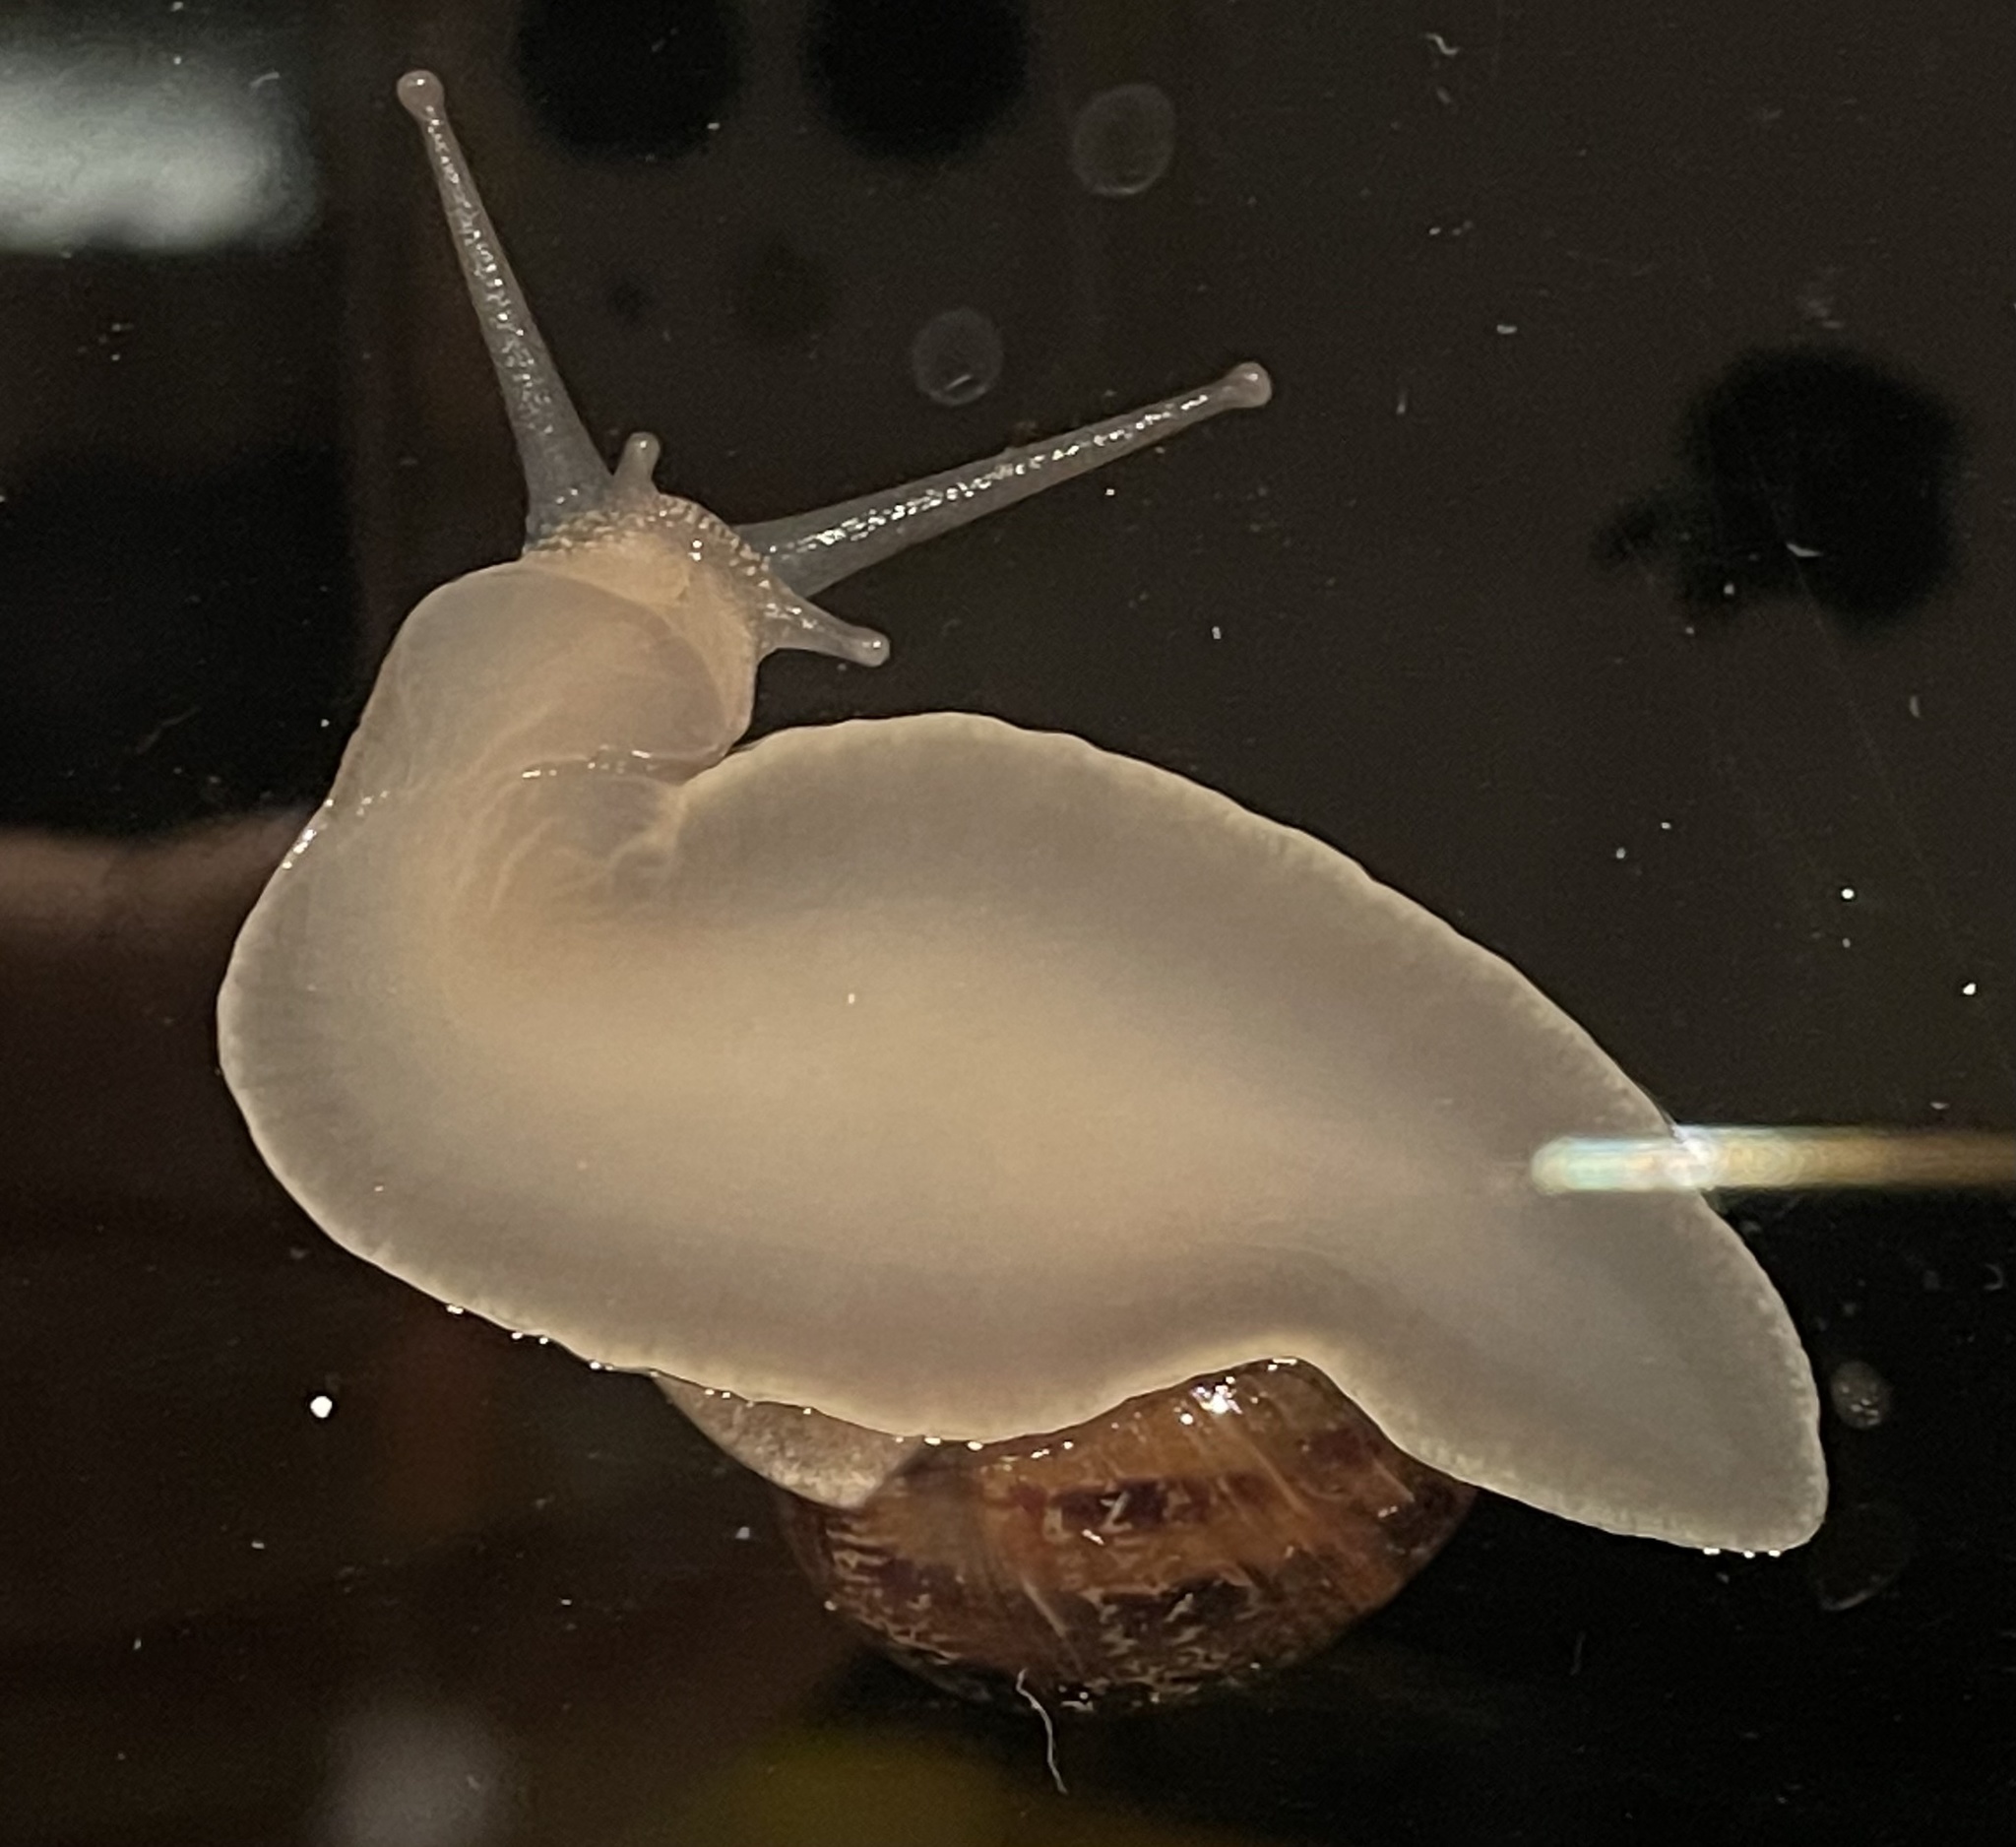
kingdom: Animalia
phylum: Mollusca
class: Gastropoda
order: Stylommatophora
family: Helicidae
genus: Cornu
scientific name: Cornu aspersum
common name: Brown garden snail
